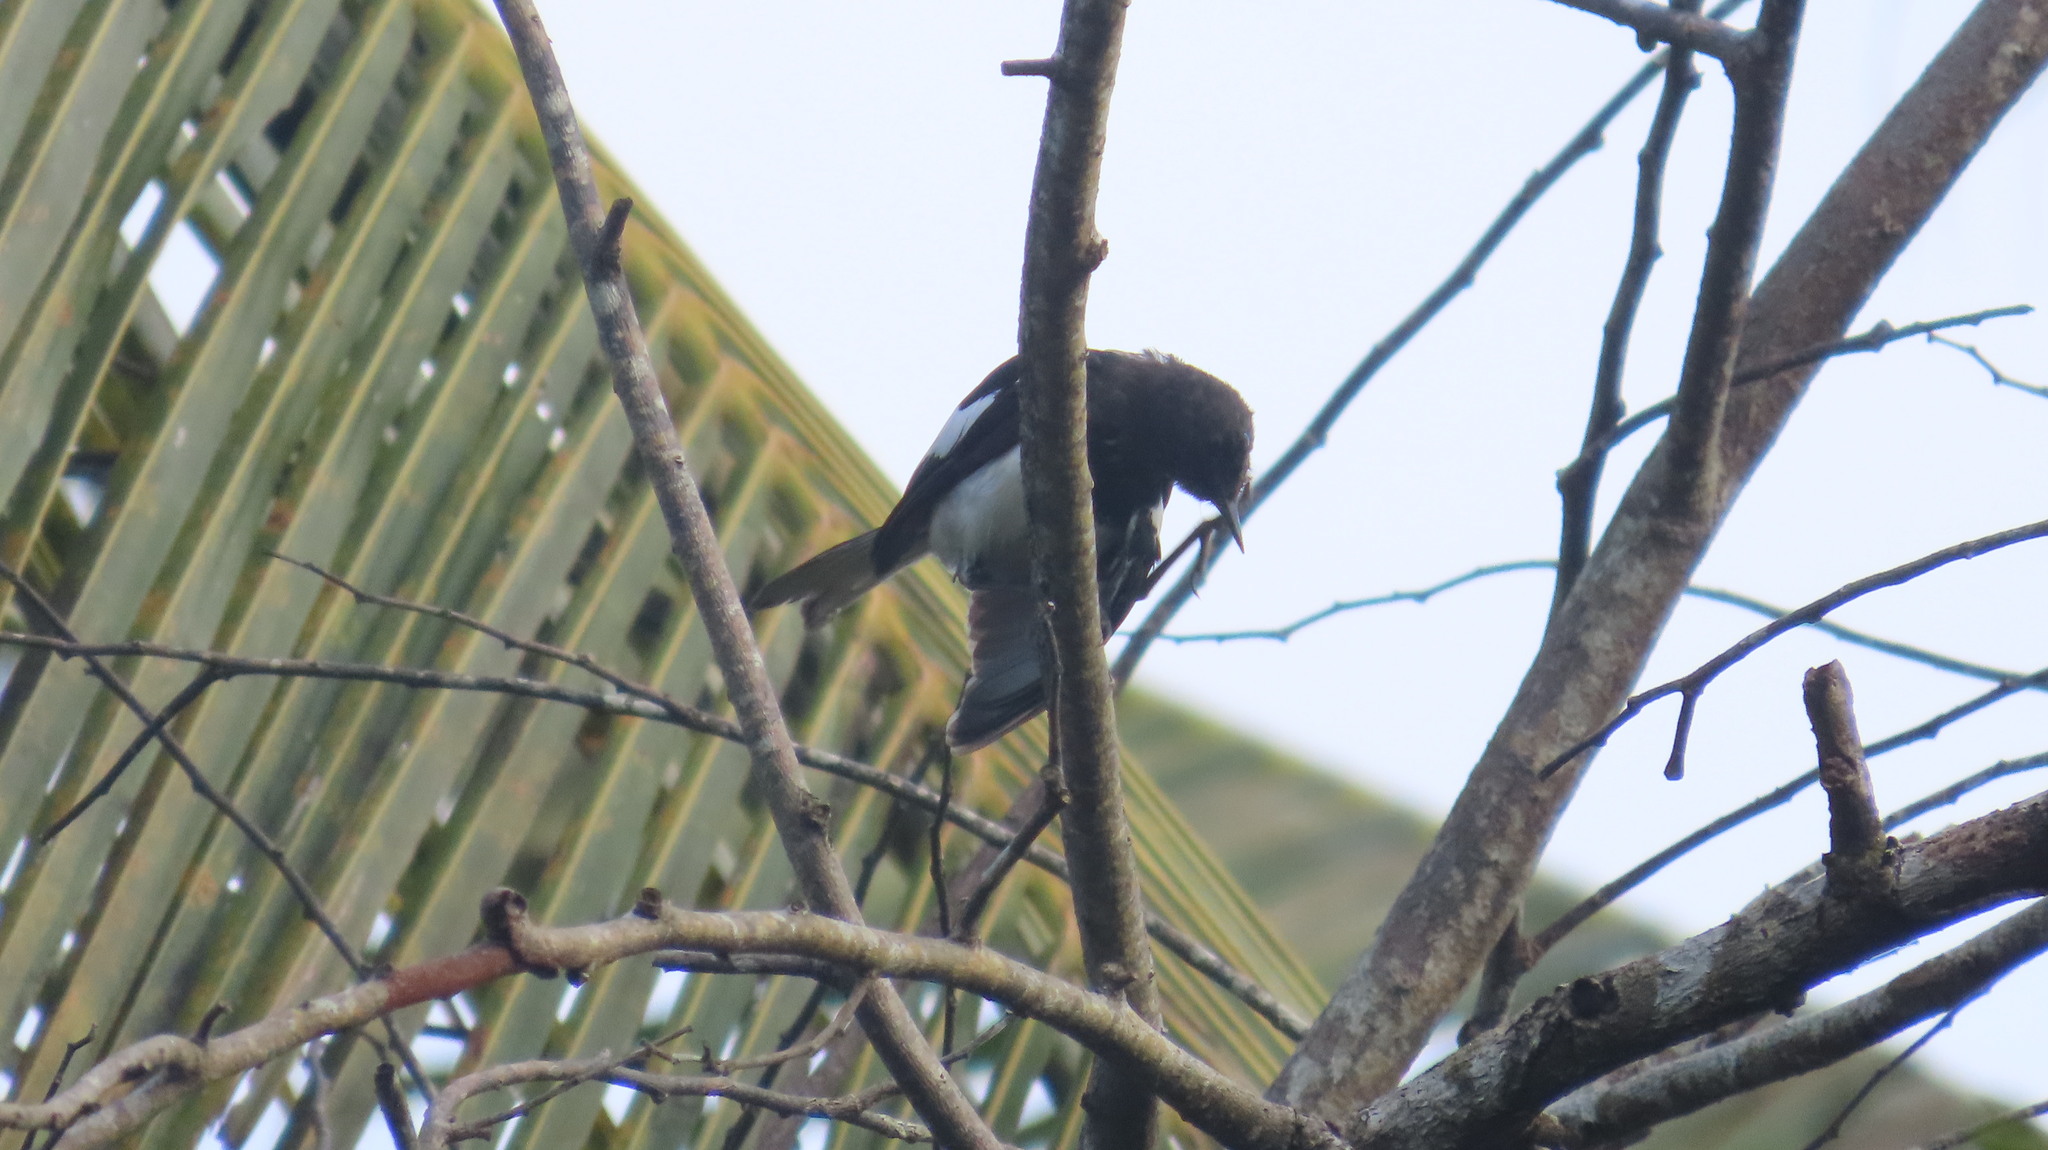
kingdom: Animalia
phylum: Chordata
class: Aves
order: Passeriformes
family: Muscicapidae
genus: Copsychus
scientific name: Copsychus saularis
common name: Oriental magpie-robin
